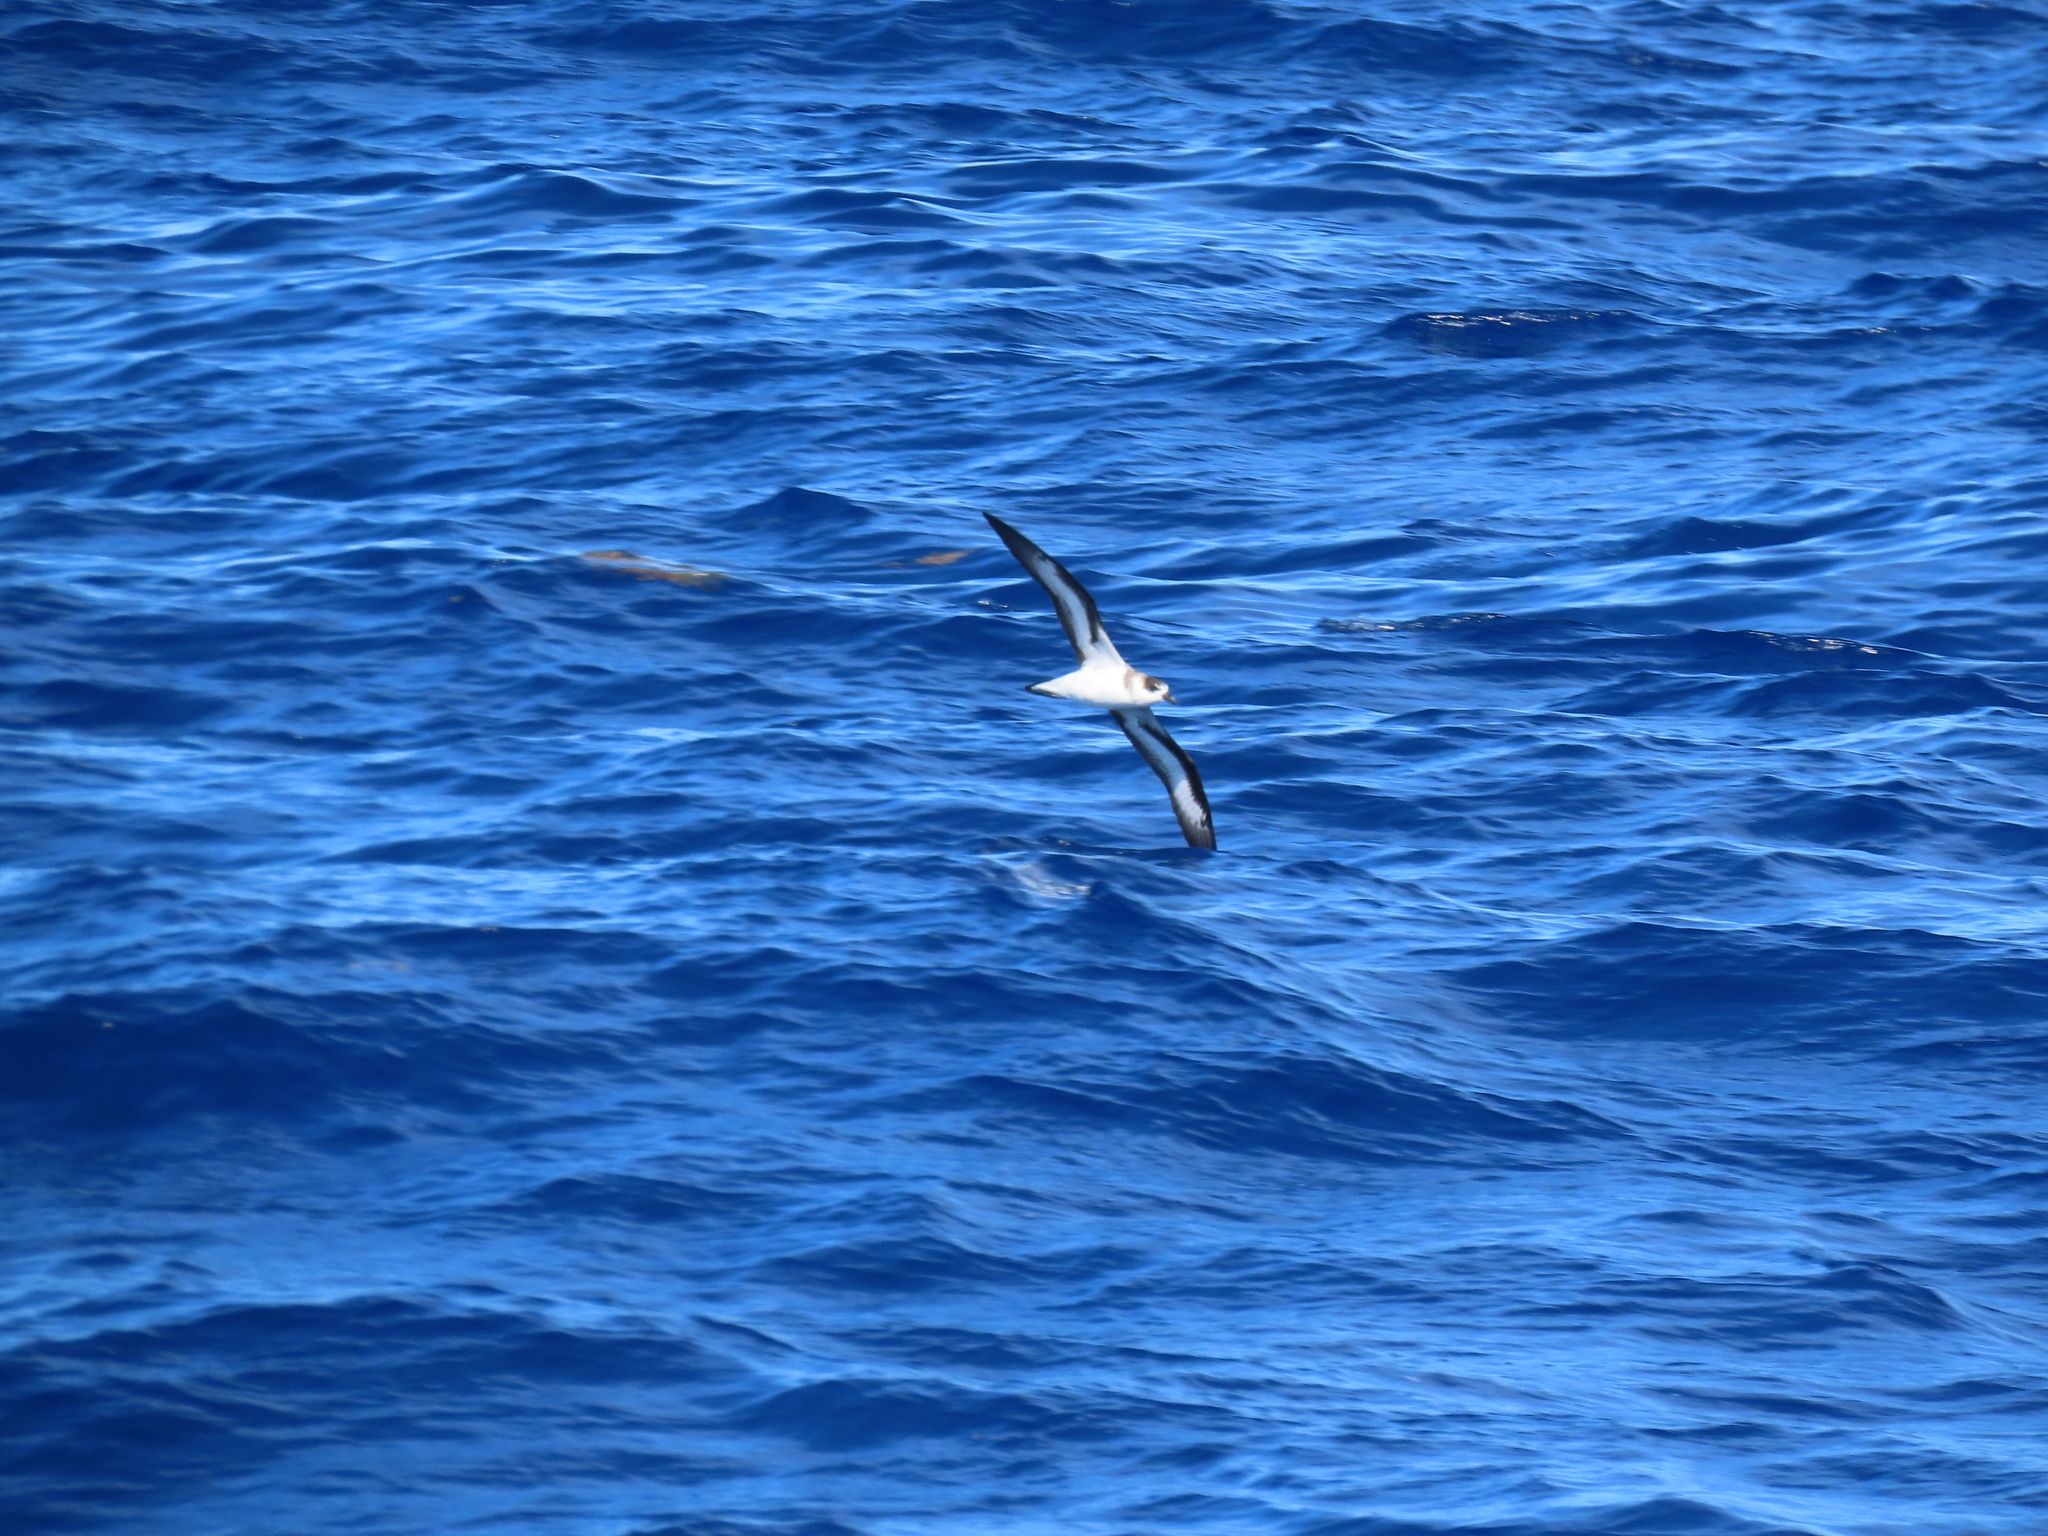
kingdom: Animalia
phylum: Chordata
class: Aves
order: Procellariiformes
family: Procellariidae
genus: Pterodroma
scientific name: Pterodroma hasitata
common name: Black-capped petrel
